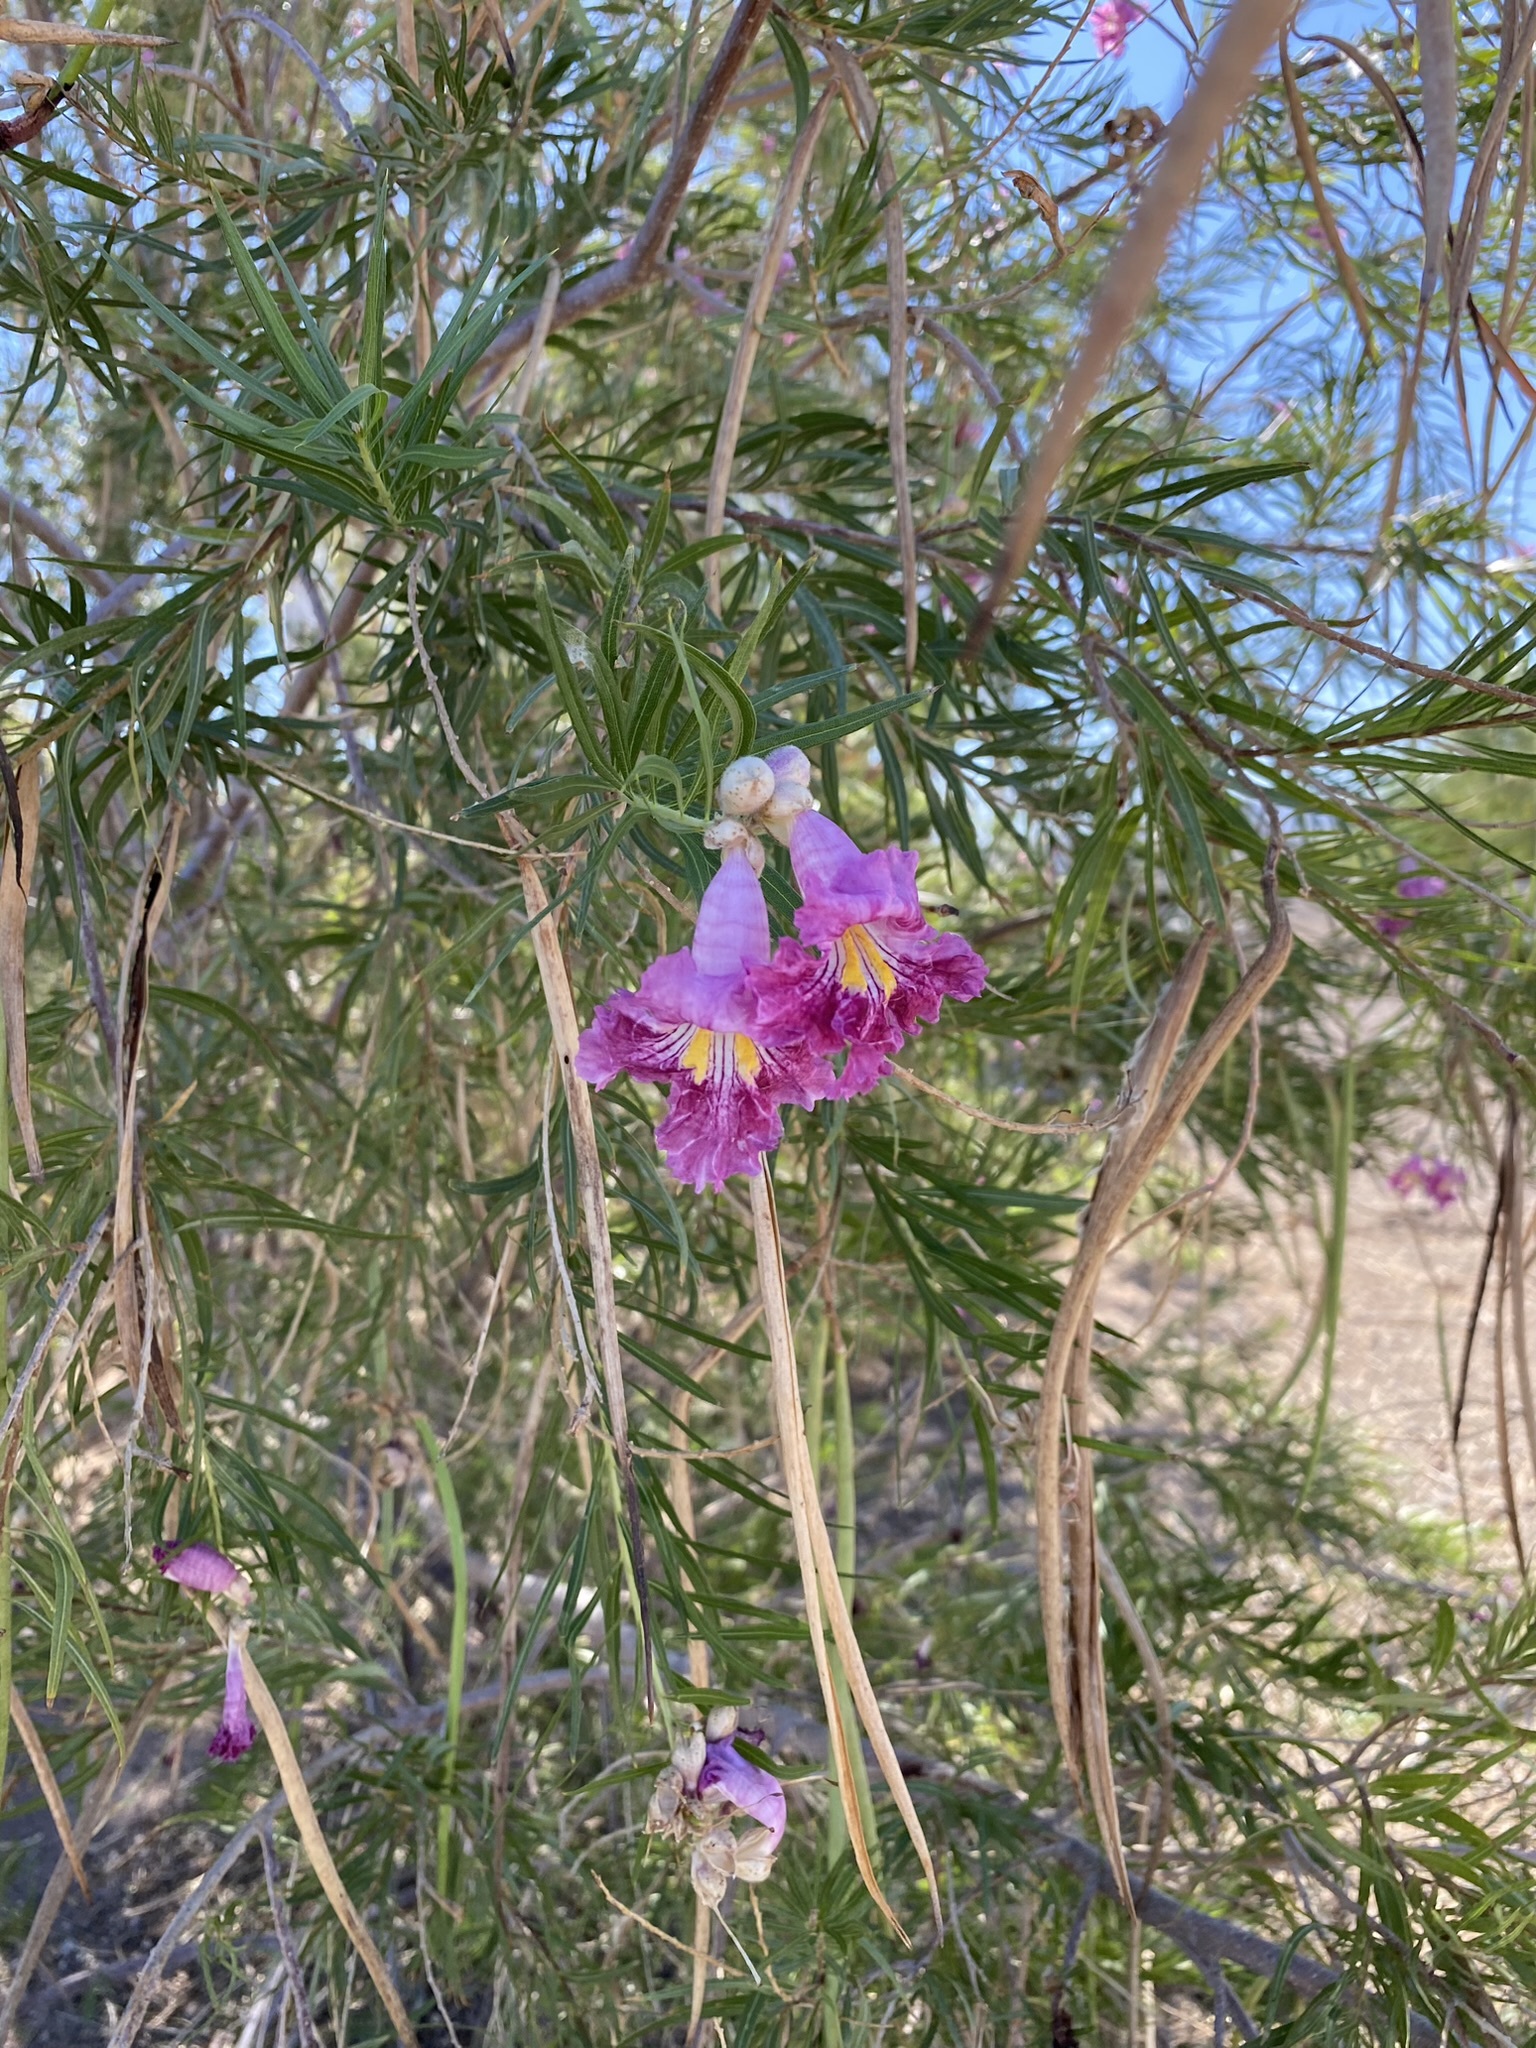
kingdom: Plantae
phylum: Tracheophyta
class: Magnoliopsida
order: Lamiales
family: Bignoniaceae
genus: Chilopsis
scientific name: Chilopsis linearis
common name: Desert-willow
